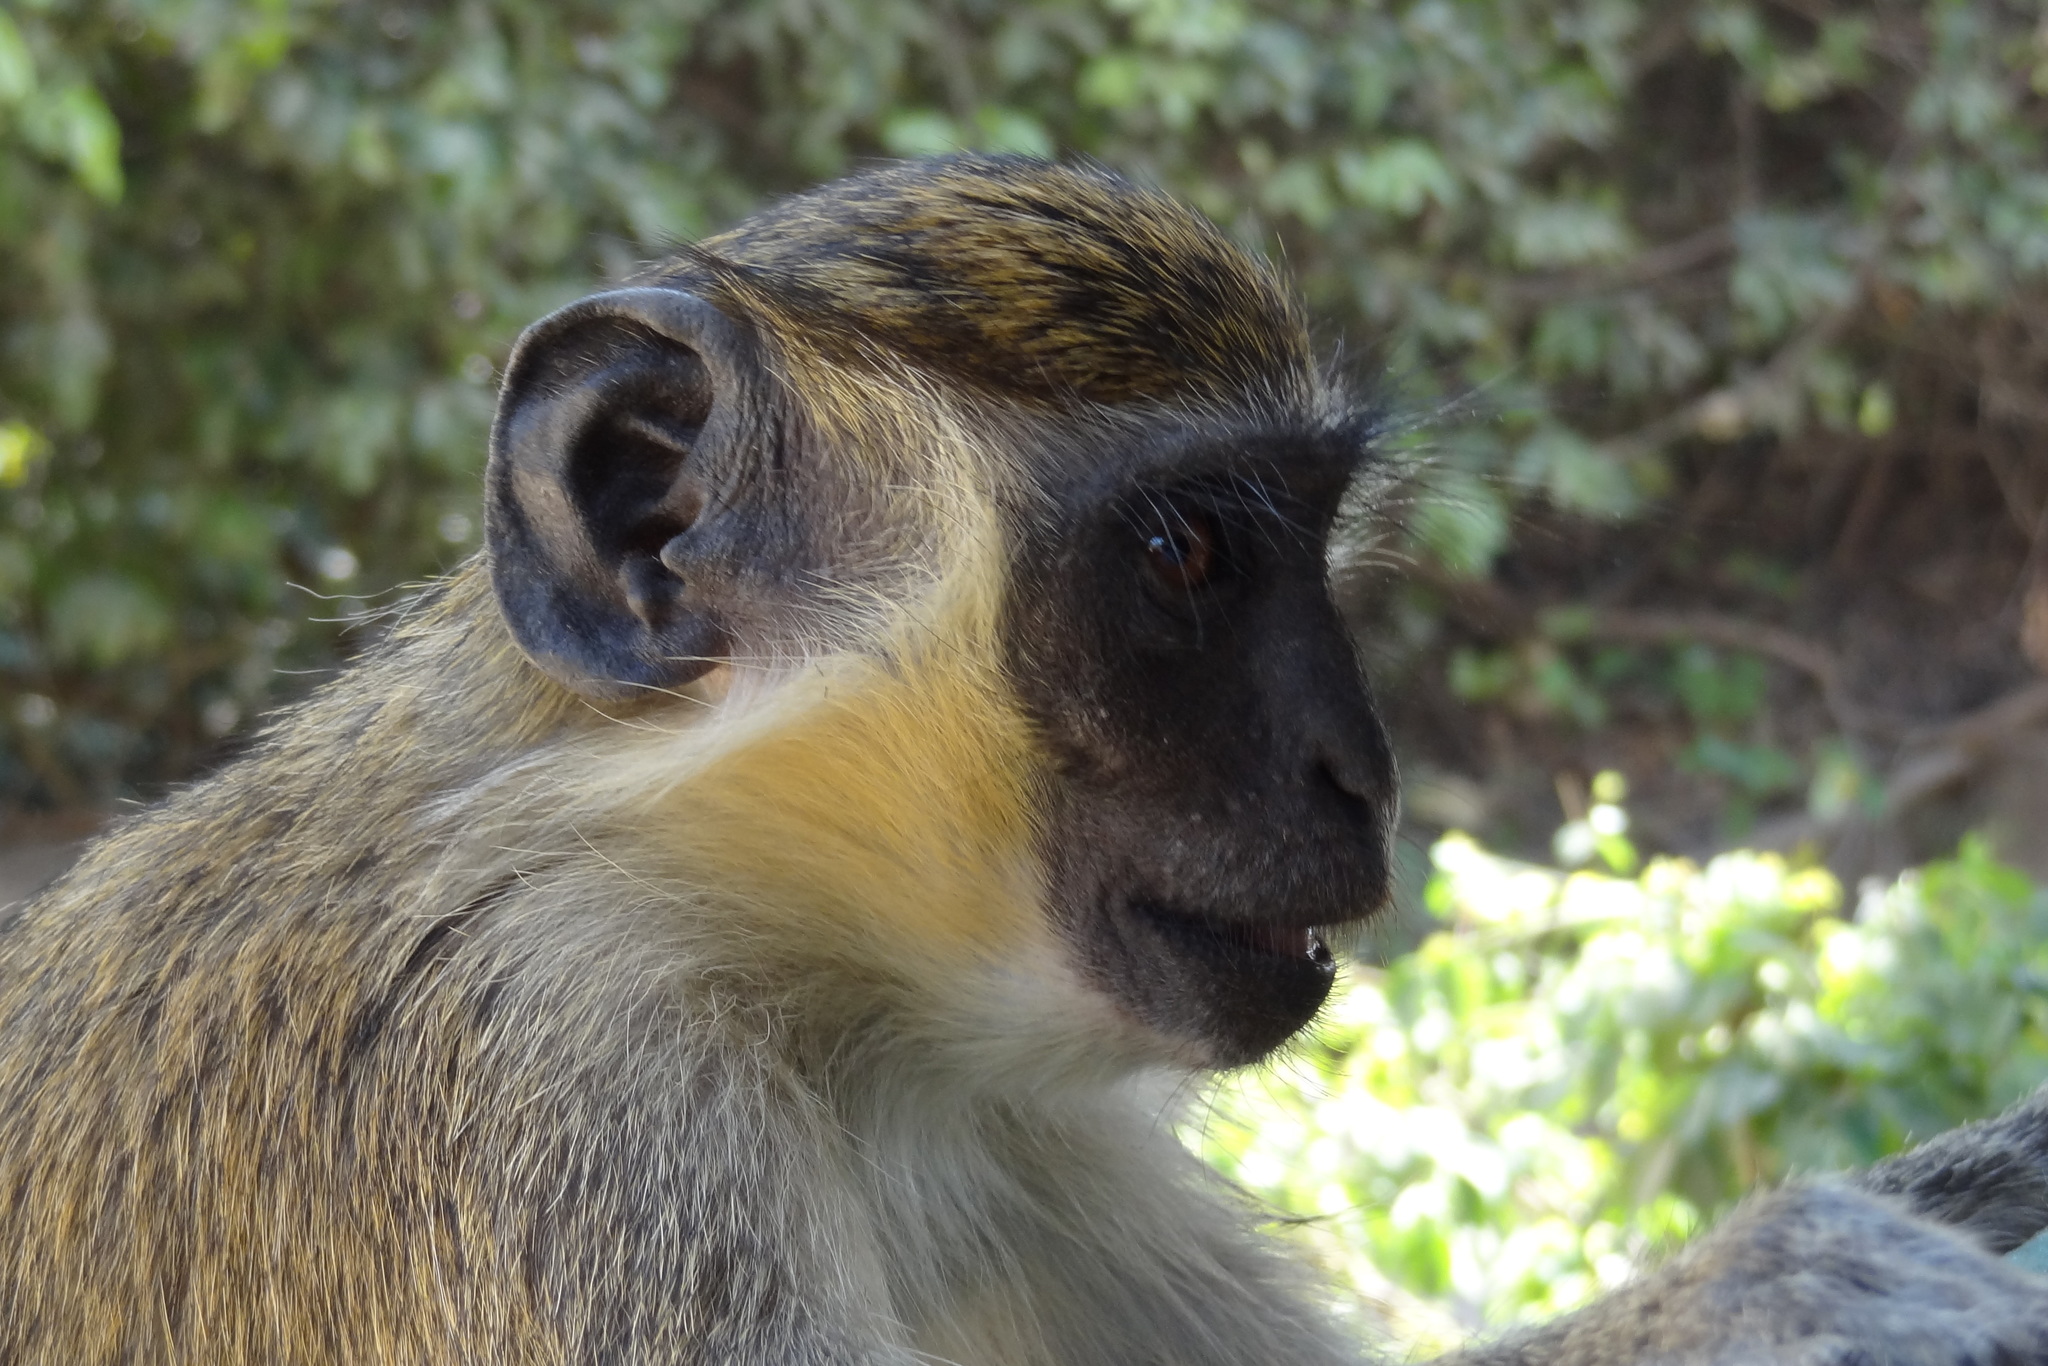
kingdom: Animalia
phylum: Chordata
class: Mammalia
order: Primates
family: Cercopithecidae
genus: Chlorocebus
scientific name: Chlorocebus sabaeus
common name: Green monkey
